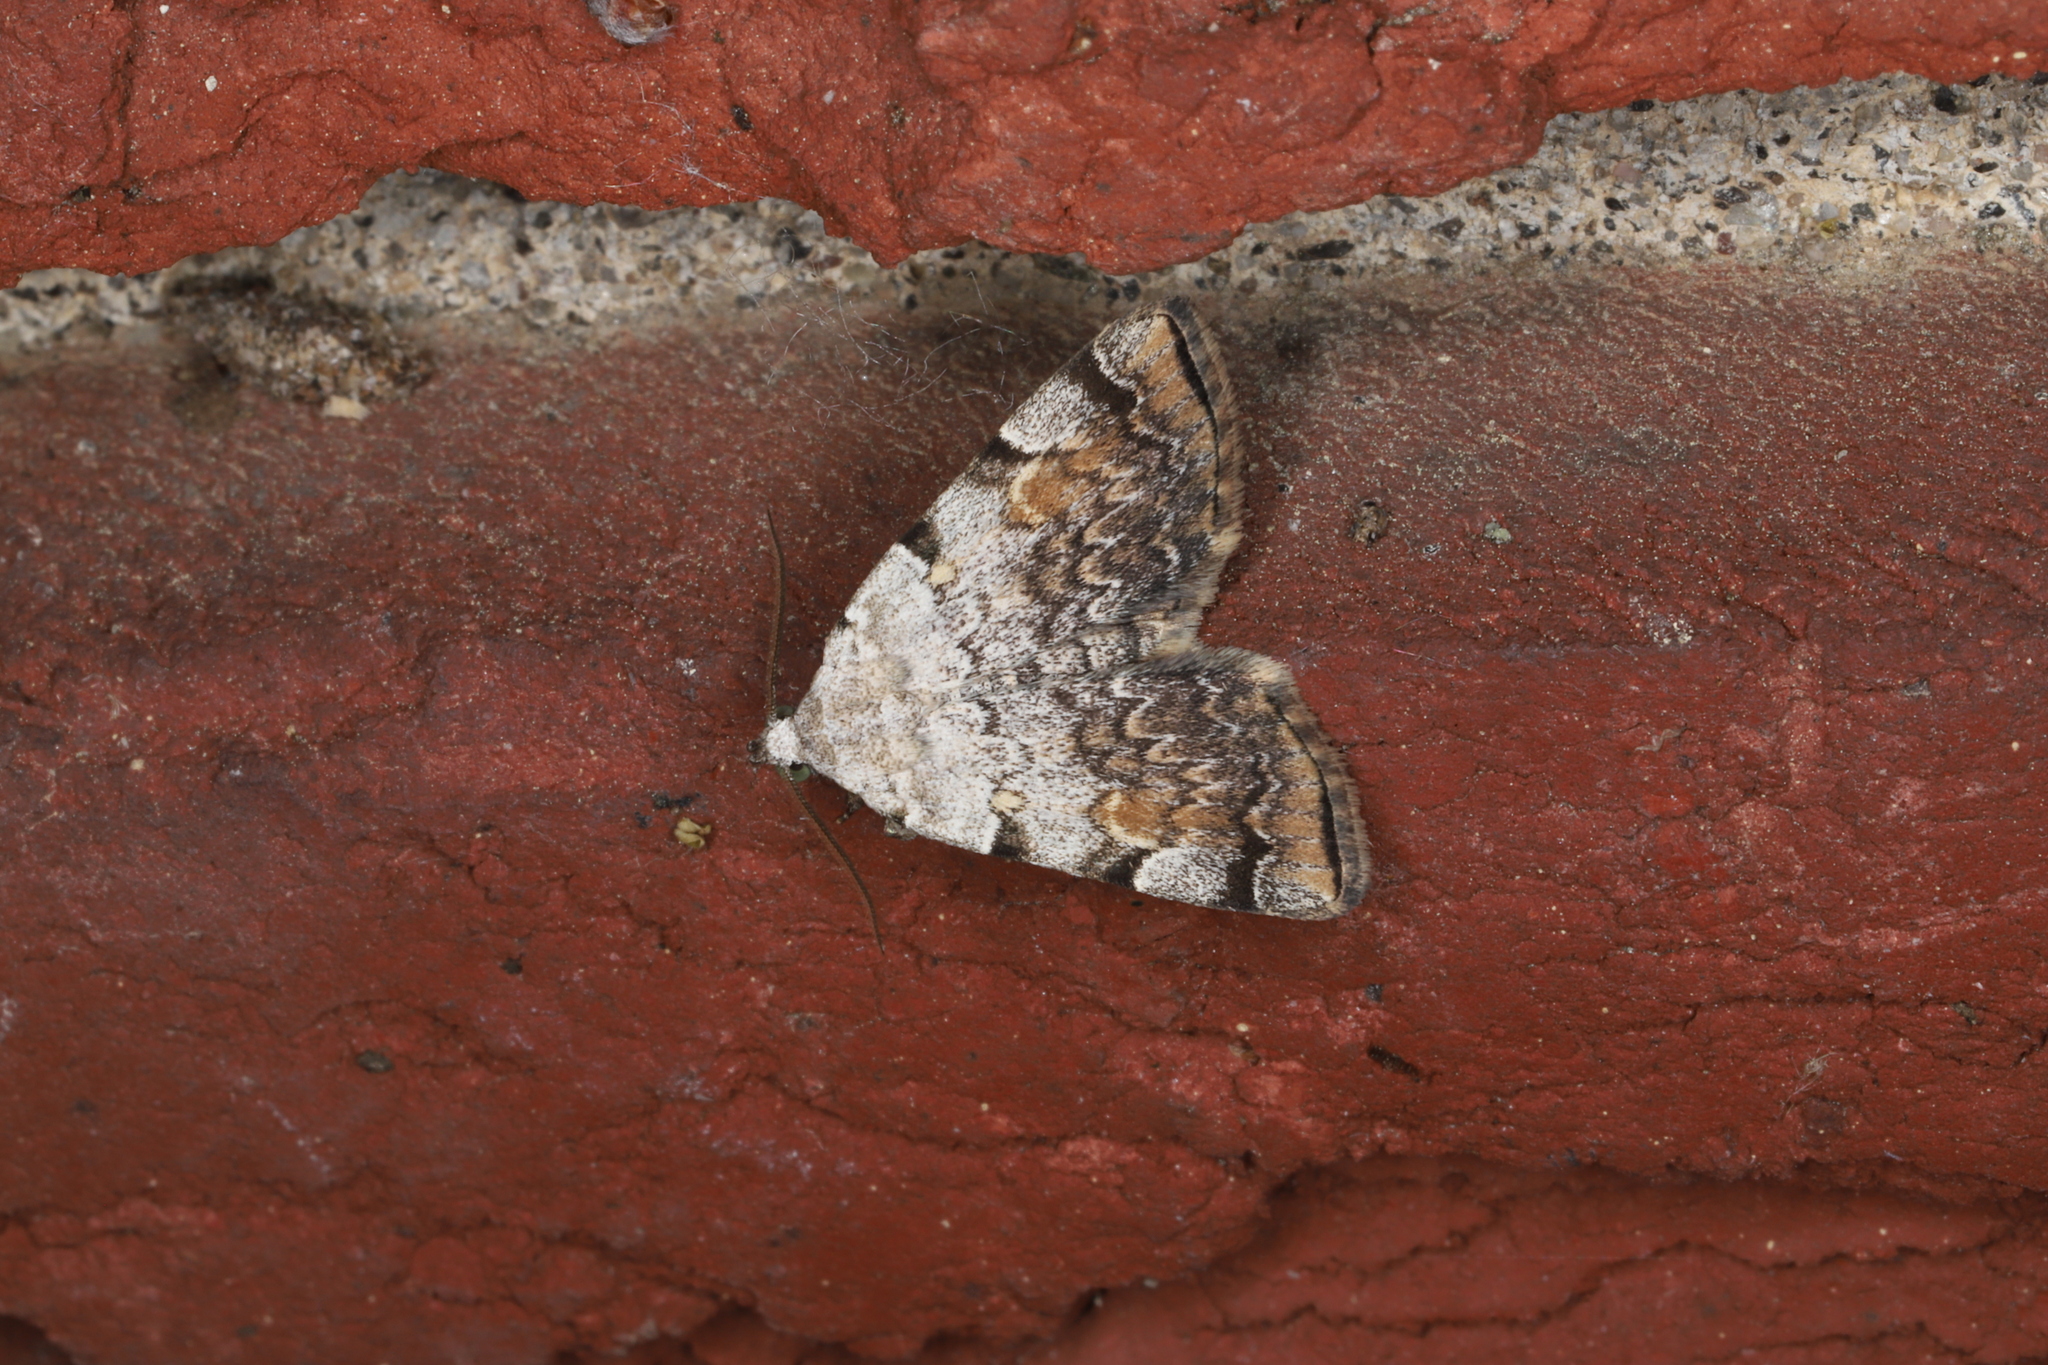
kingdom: Animalia
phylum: Arthropoda
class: Insecta
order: Lepidoptera
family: Erebidae
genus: Idia
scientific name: Idia americalis
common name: American idia moth
